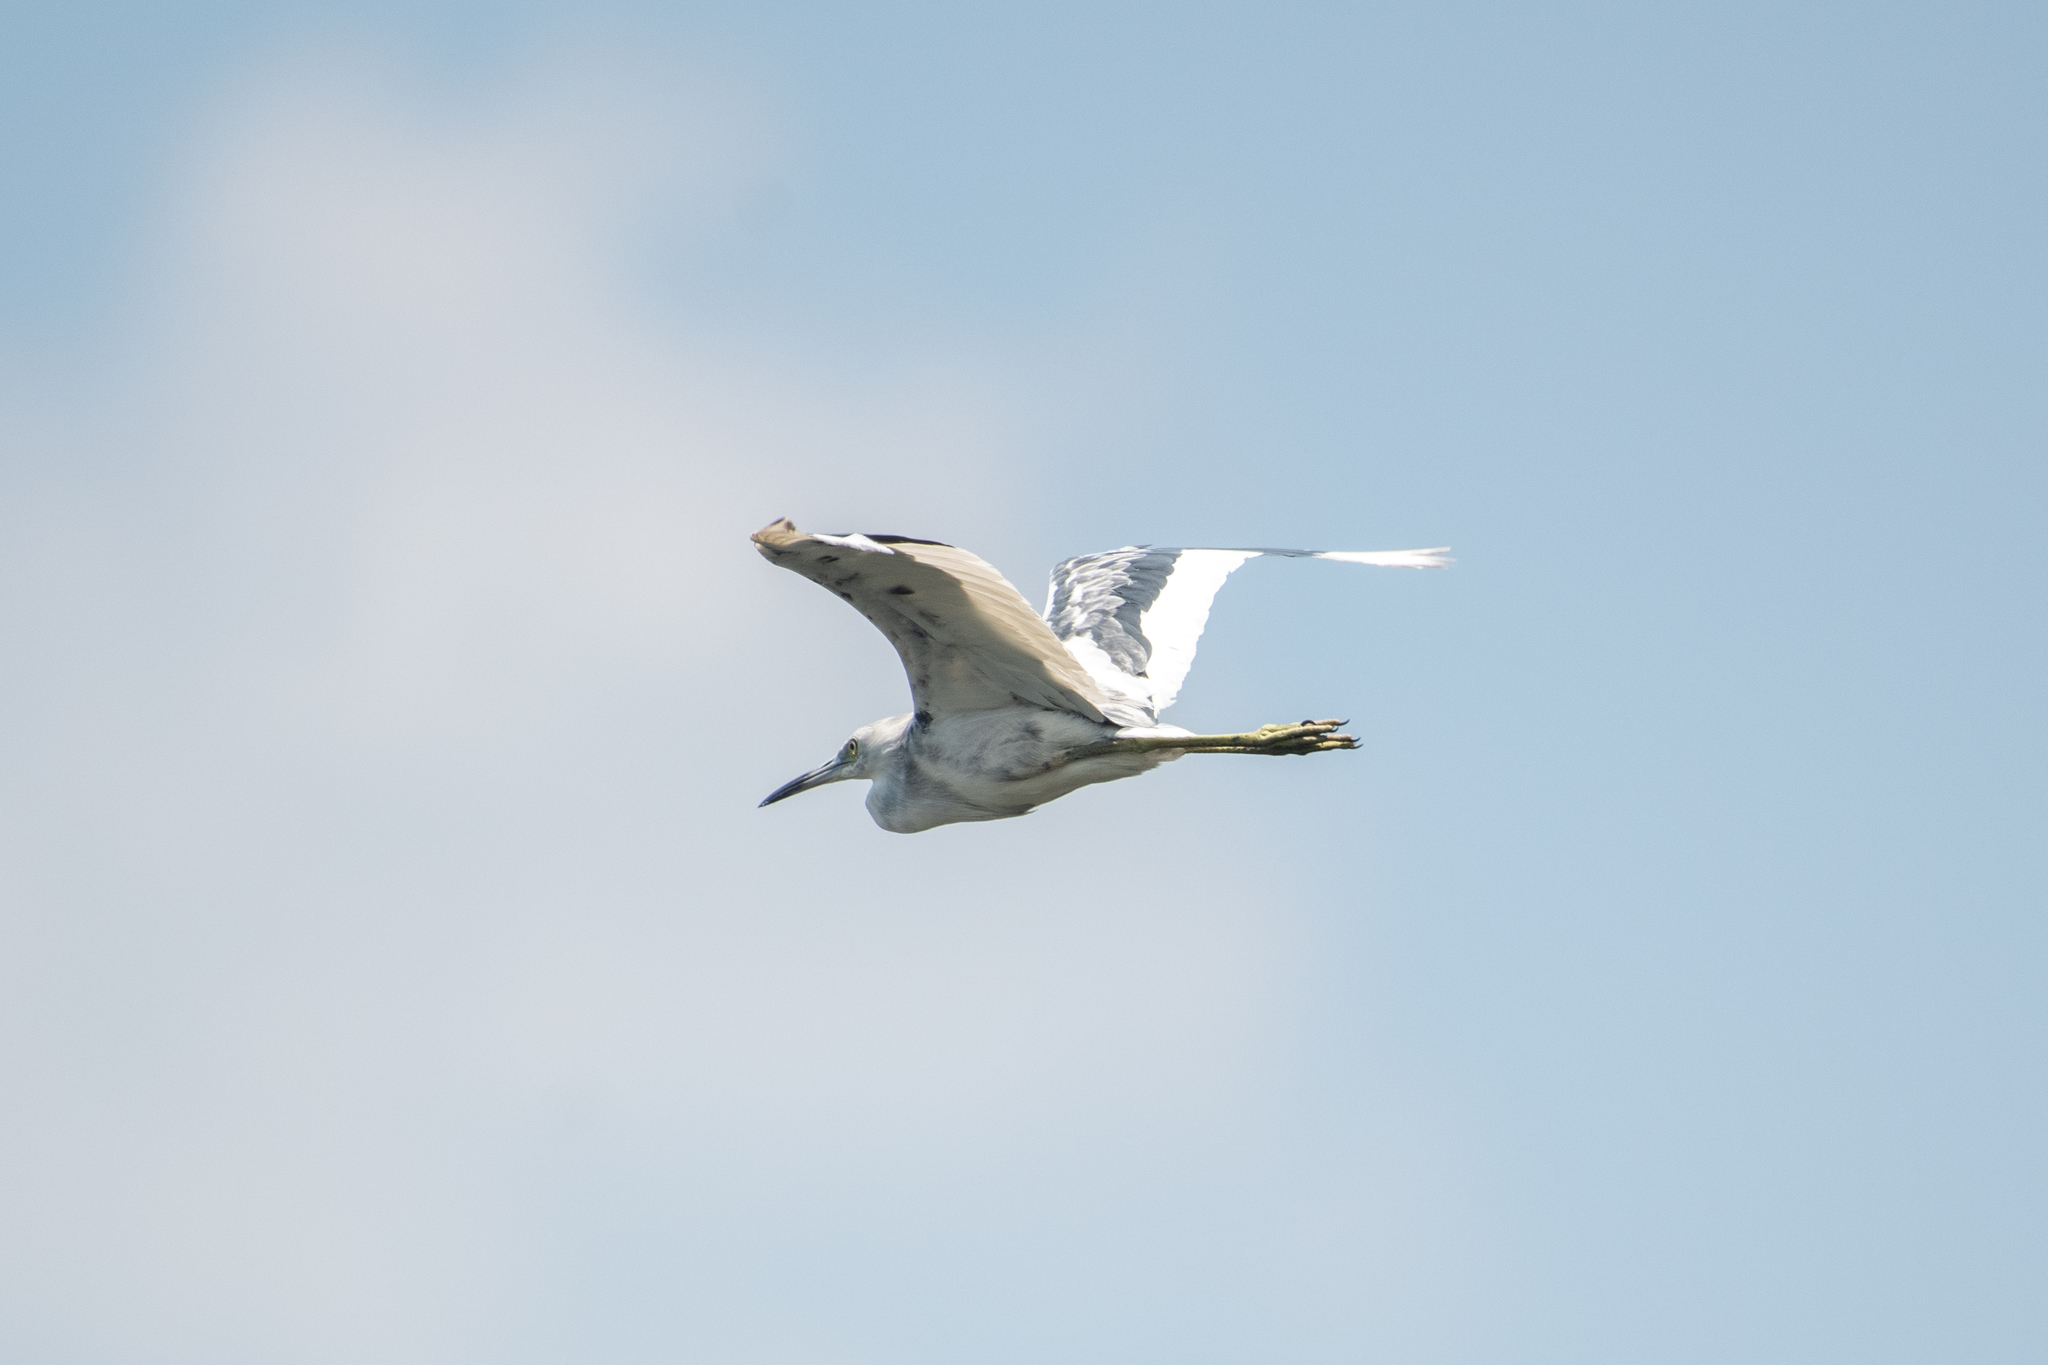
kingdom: Animalia
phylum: Chordata
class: Aves
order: Pelecaniformes
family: Ardeidae
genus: Egretta
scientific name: Egretta caerulea
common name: Little blue heron
